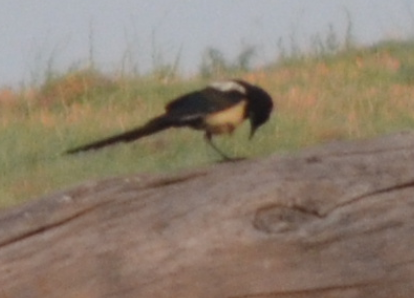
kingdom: Animalia
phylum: Chordata
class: Aves
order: Passeriformes
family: Corvidae
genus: Pica
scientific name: Pica pica
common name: Eurasian magpie
